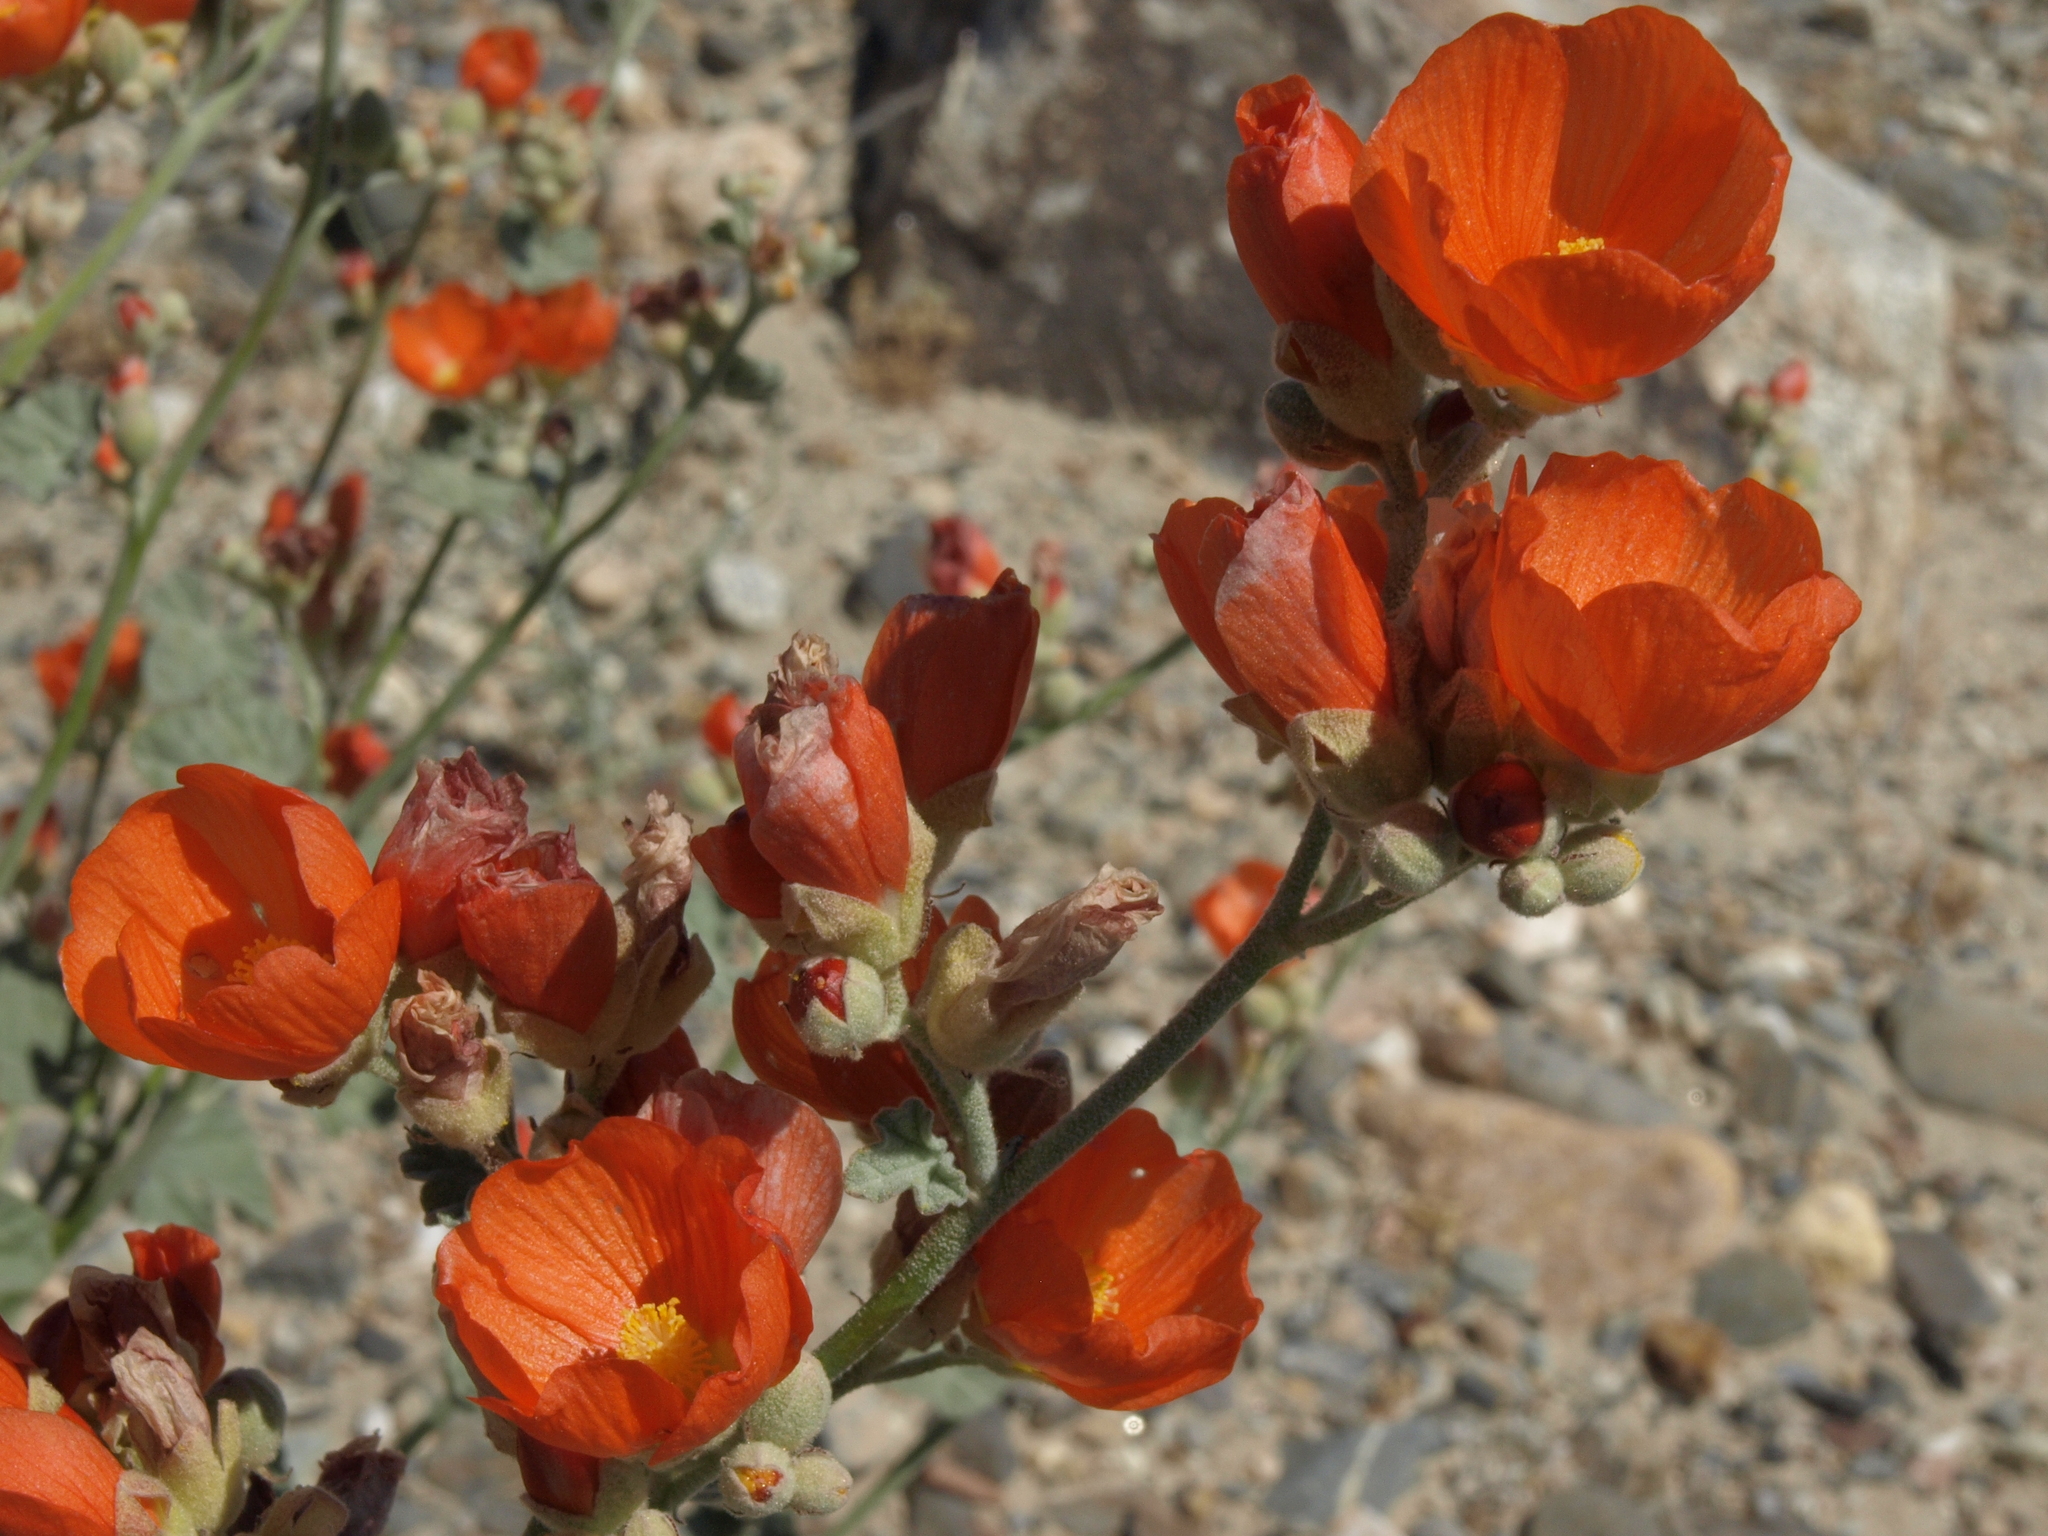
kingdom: Plantae
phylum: Tracheophyta
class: Magnoliopsida
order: Malvales
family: Malvaceae
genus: Sphaeralcea
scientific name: Sphaeralcea ambigua
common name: Apricot globe-mallow
